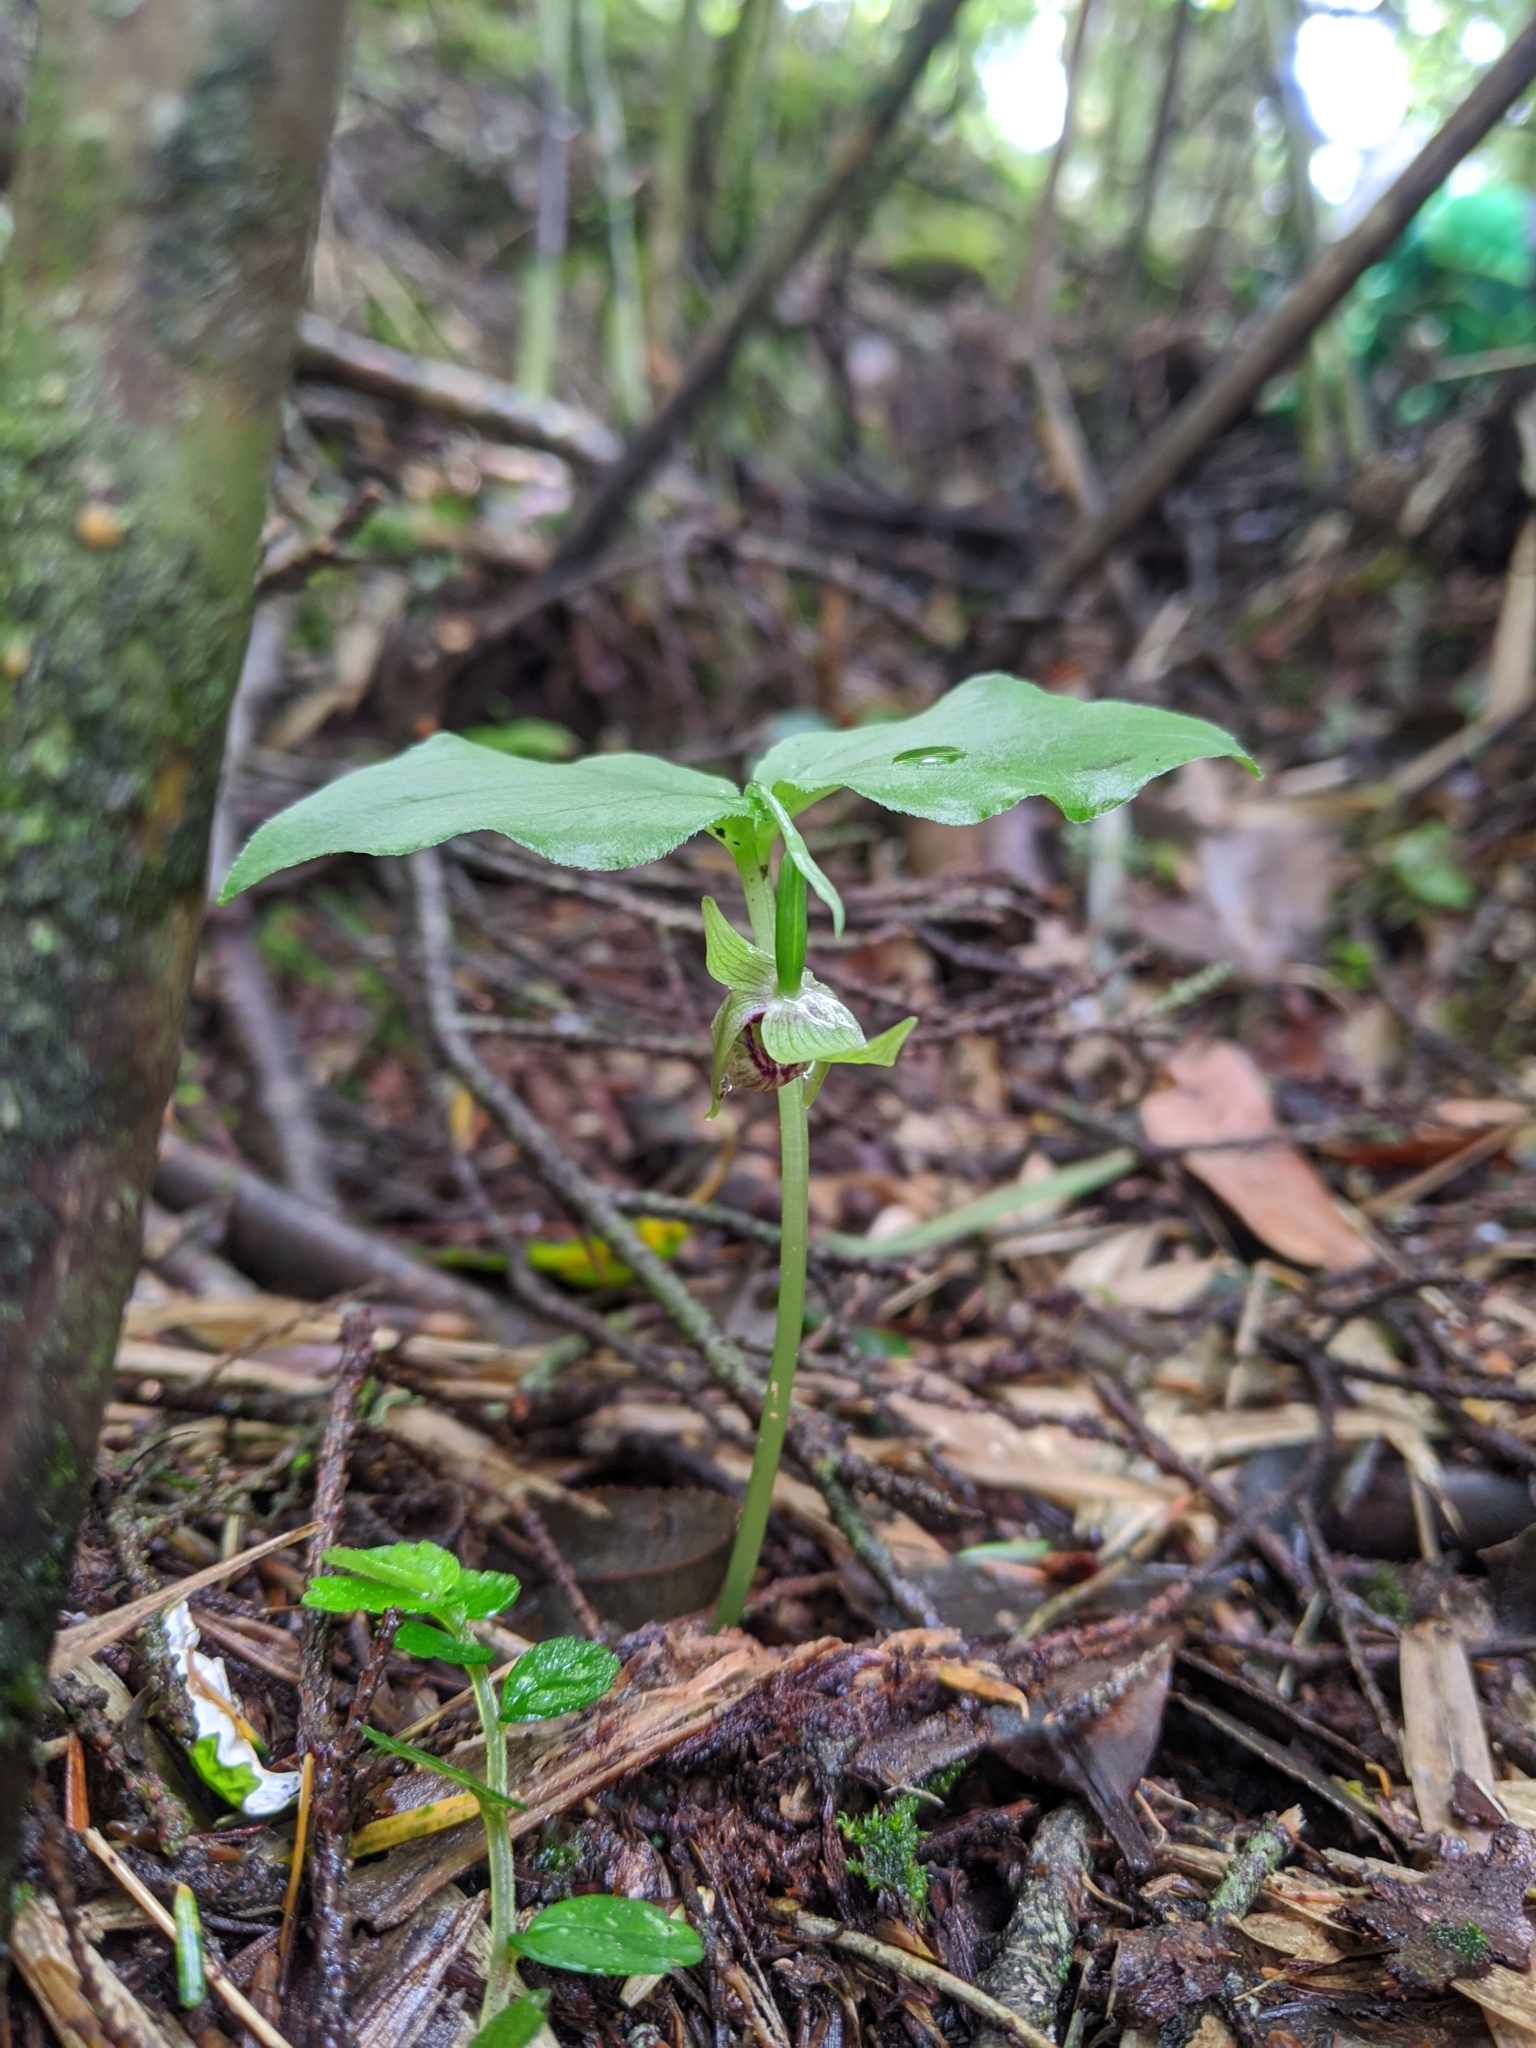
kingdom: Plantae
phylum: Tracheophyta
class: Liliopsida
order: Asparagales
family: Orchidaceae
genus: Cypripedium
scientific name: Cypripedium debile
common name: Frail cypripedium
